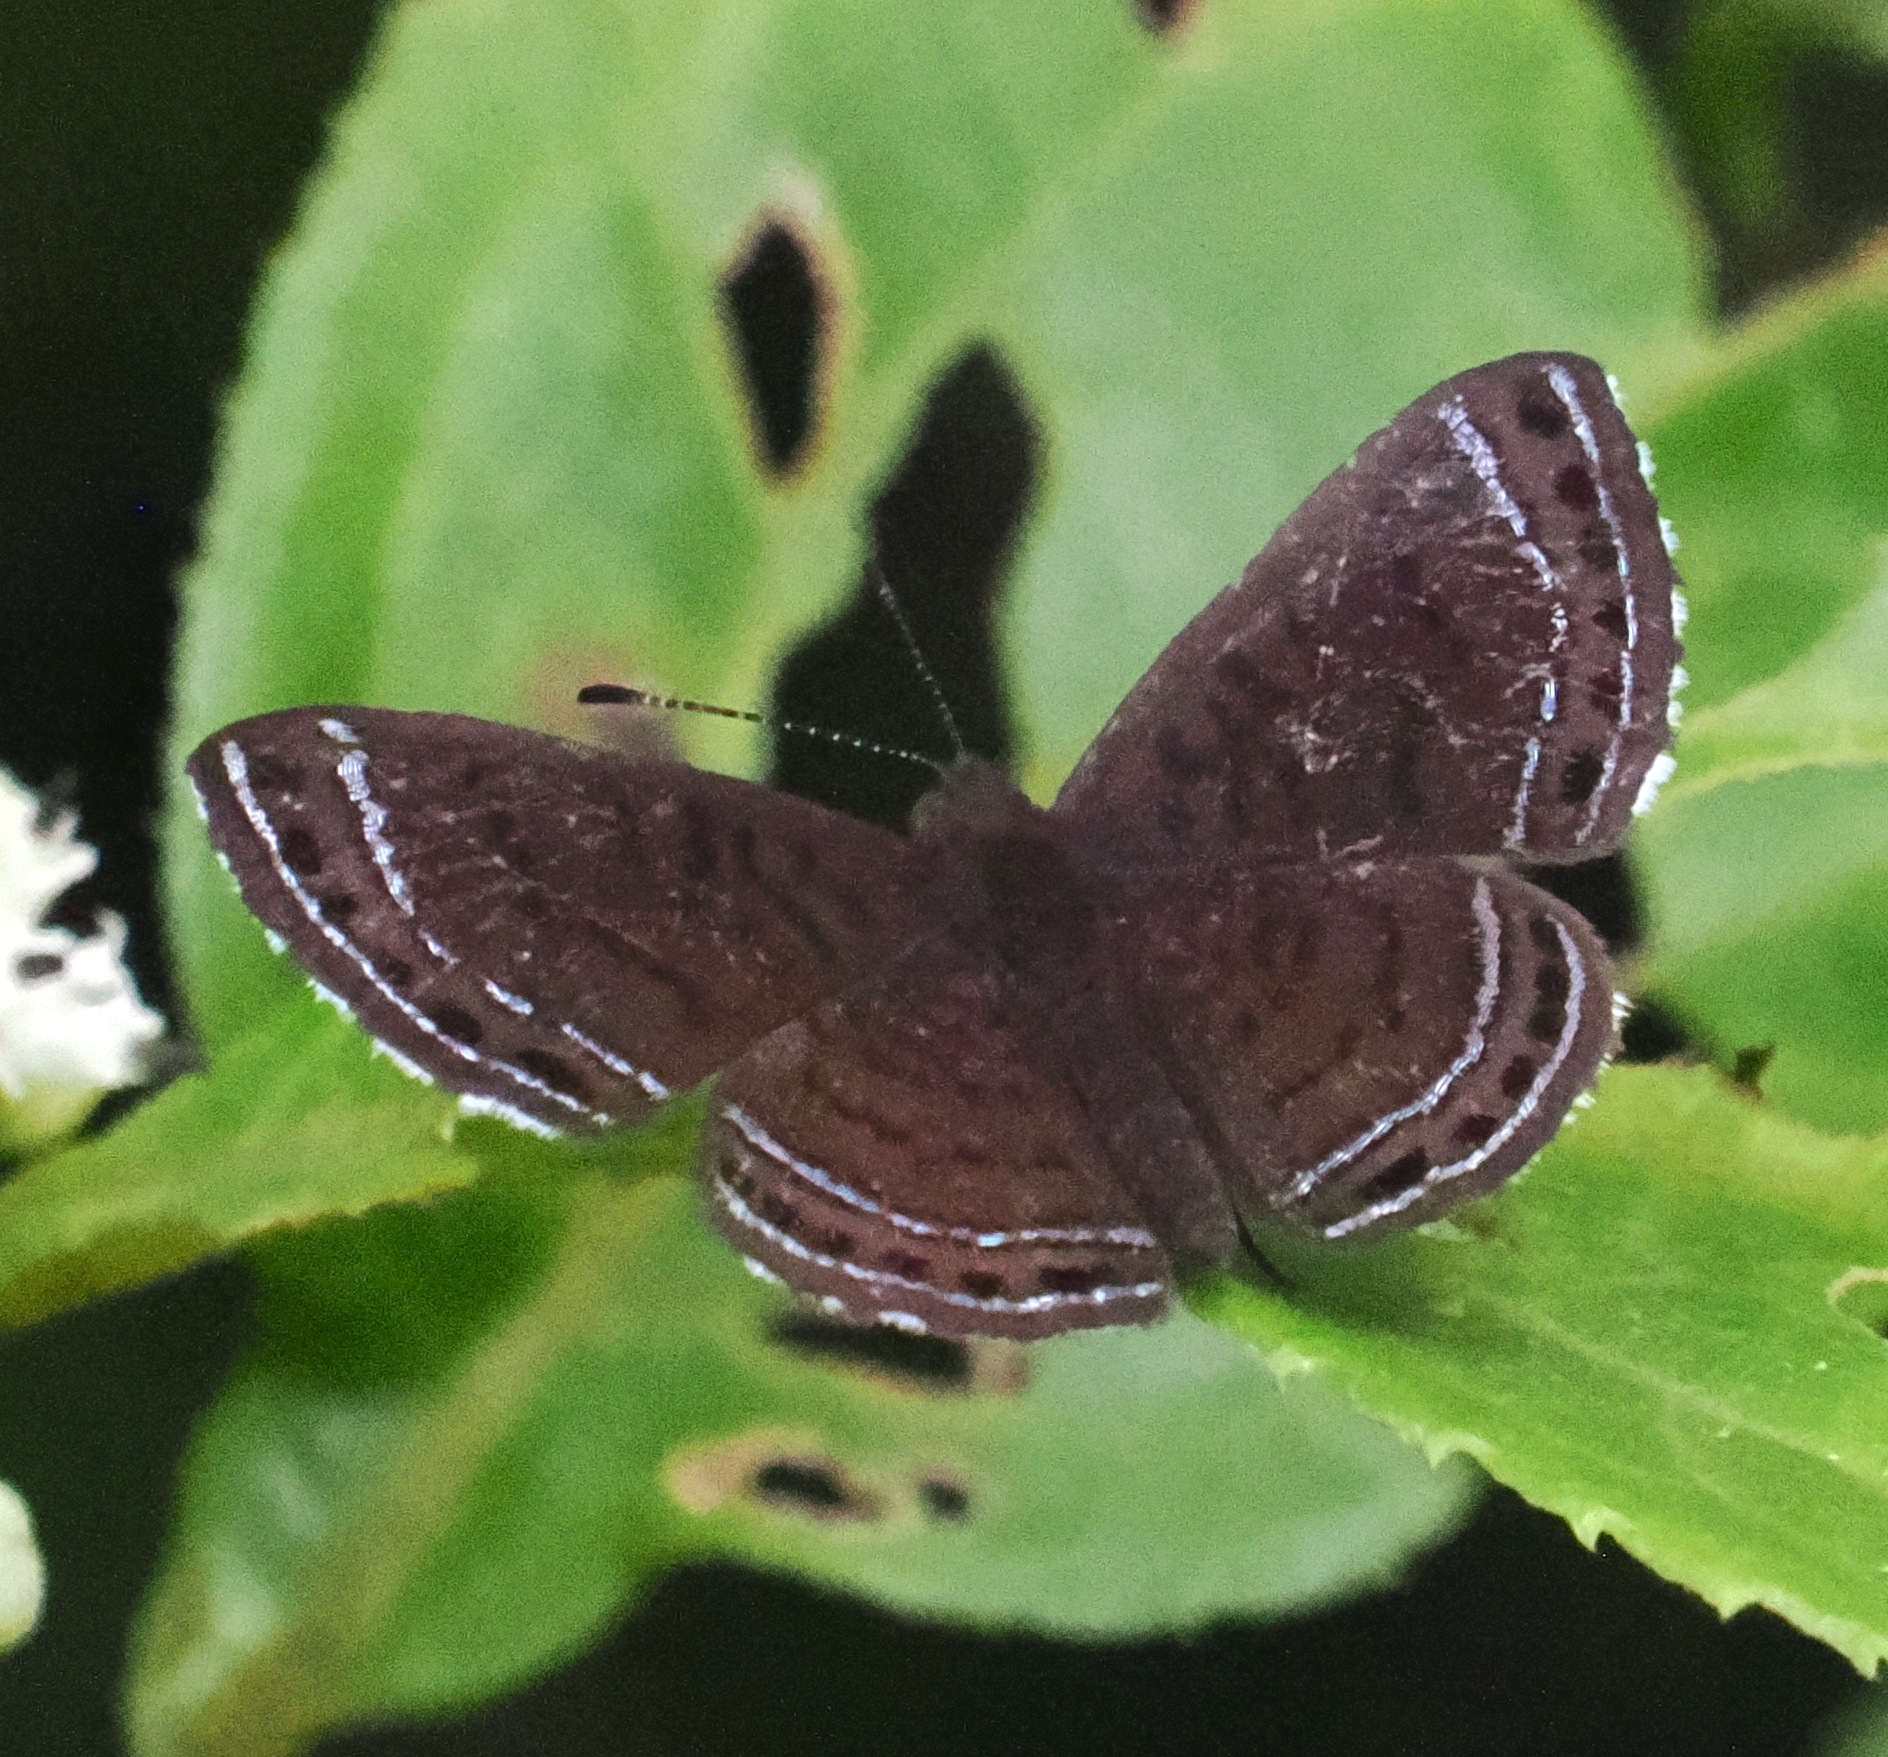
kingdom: Animalia
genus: Charis
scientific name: Charis anius
